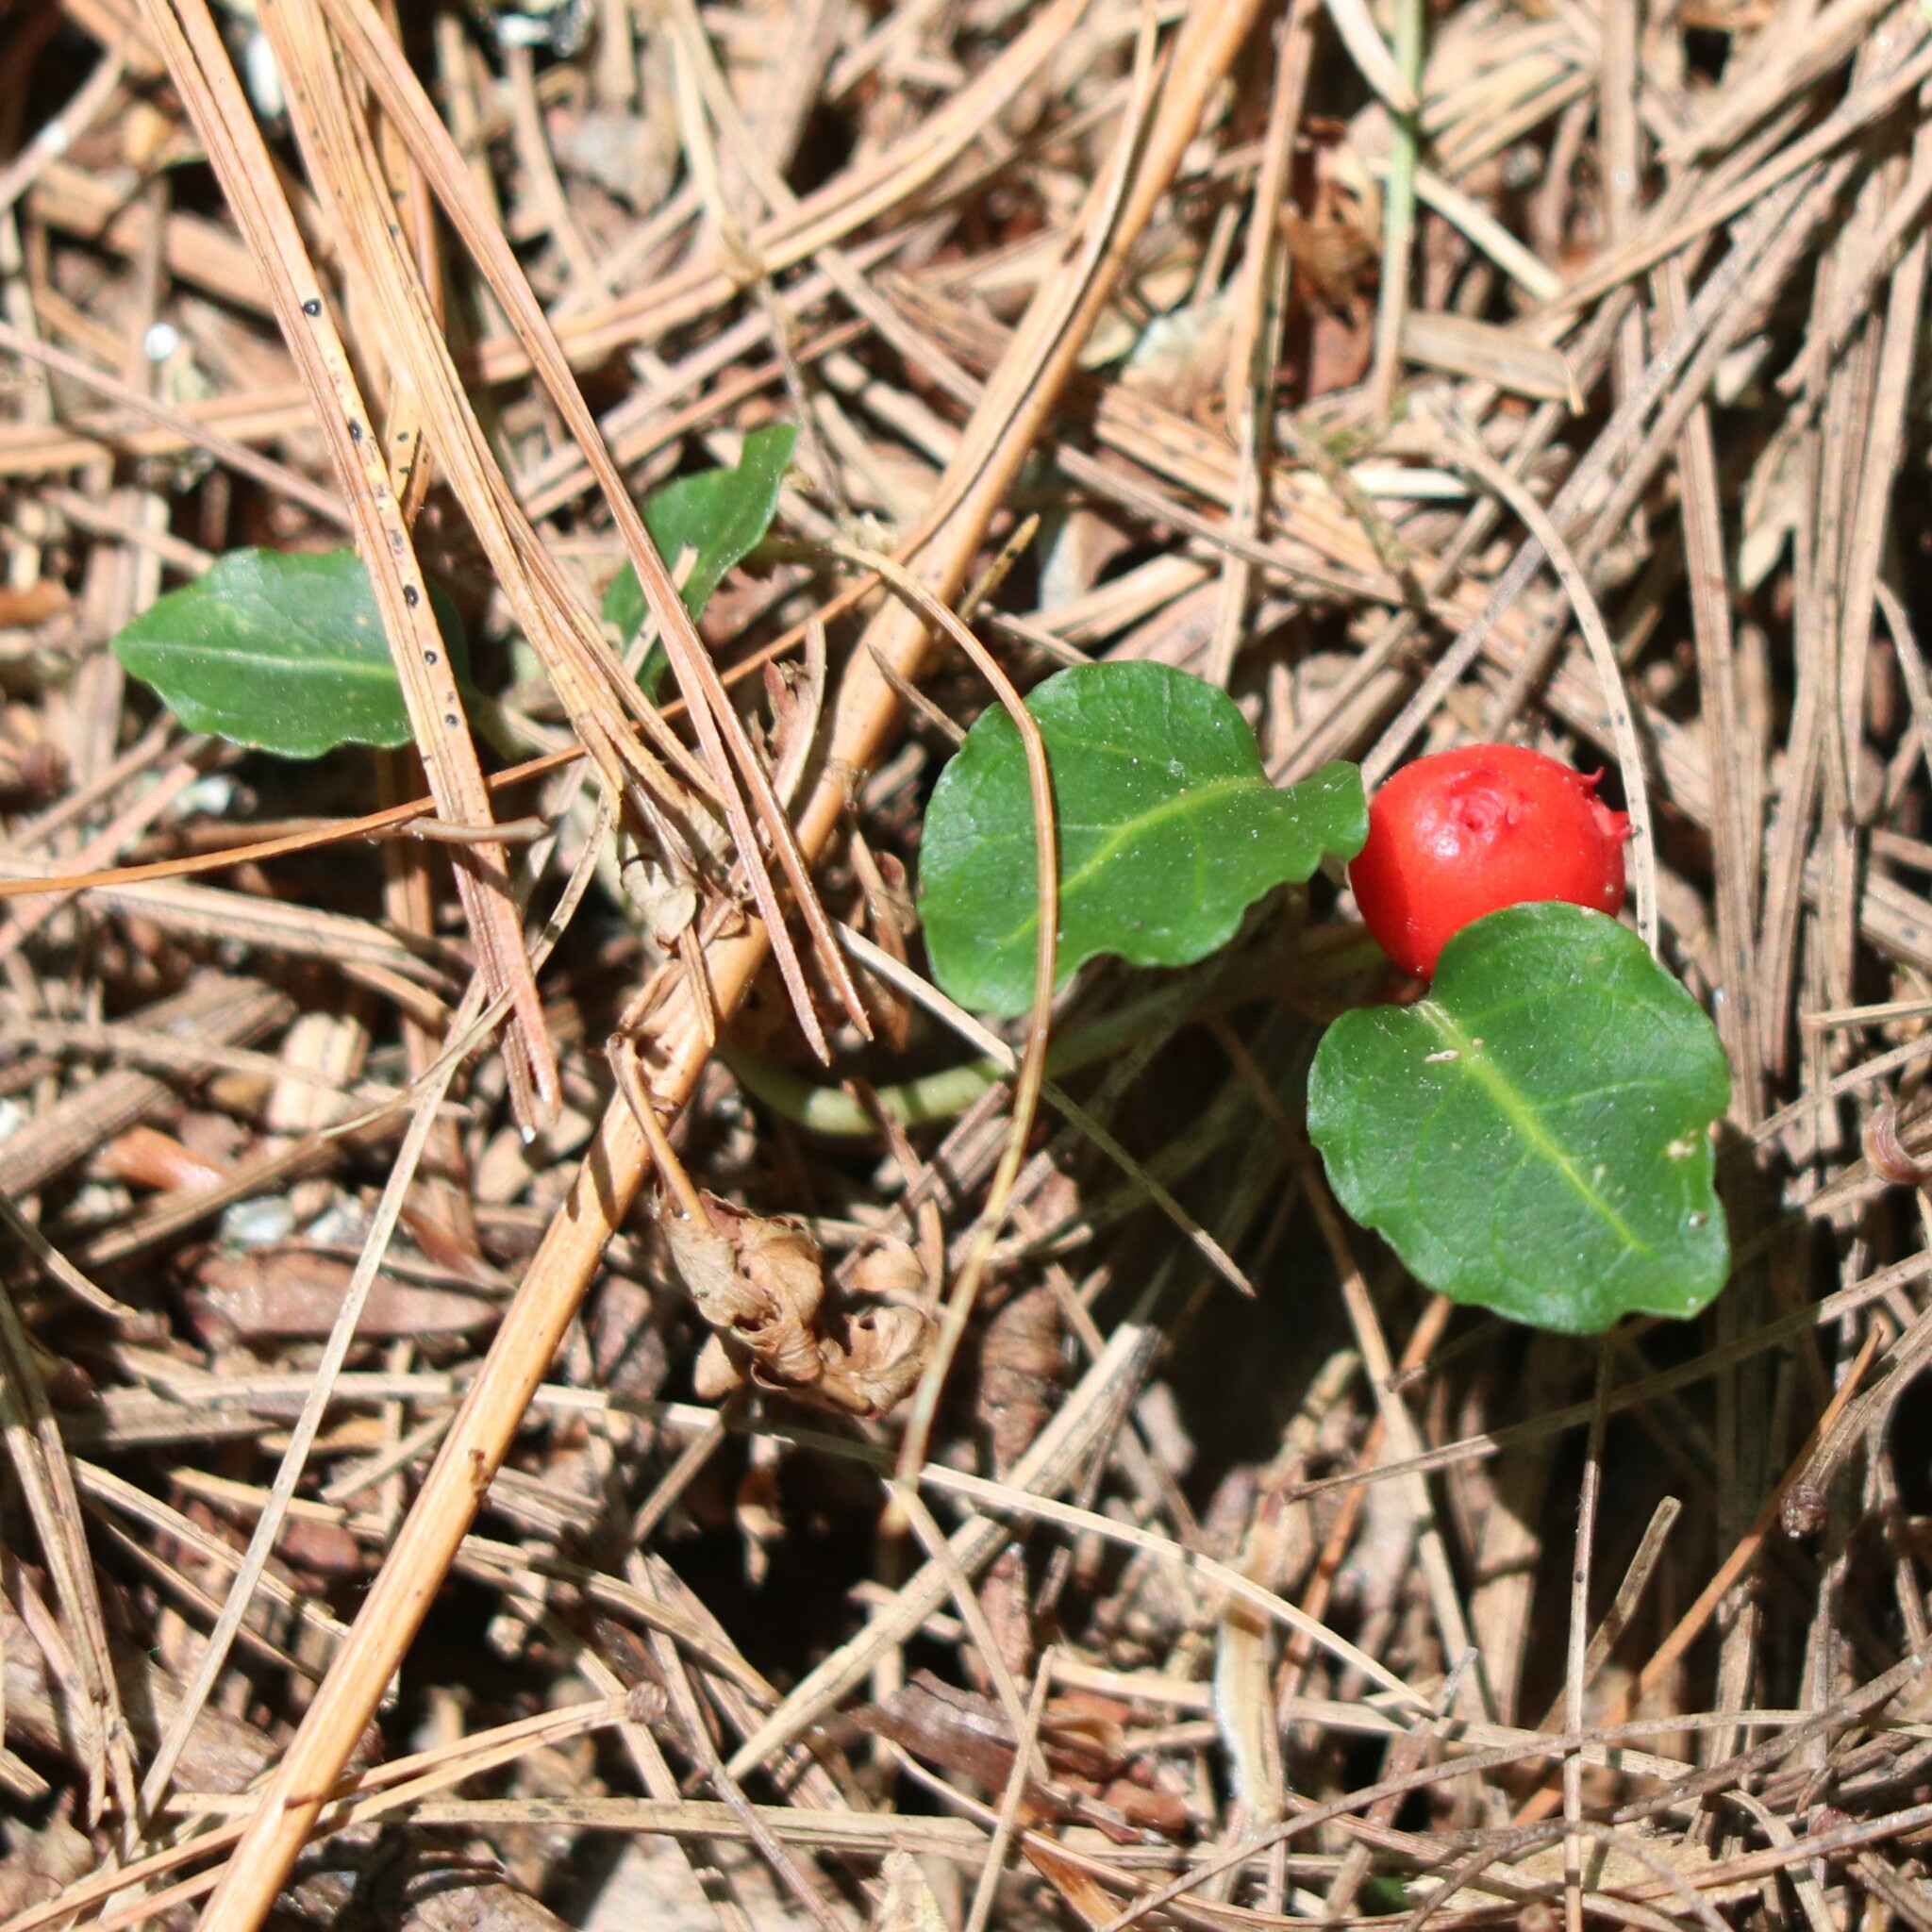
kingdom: Plantae
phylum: Tracheophyta
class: Magnoliopsida
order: Gentianales
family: Rubiaceae
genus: Mitchella
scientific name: Mitchella repens
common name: Partridge-berry
